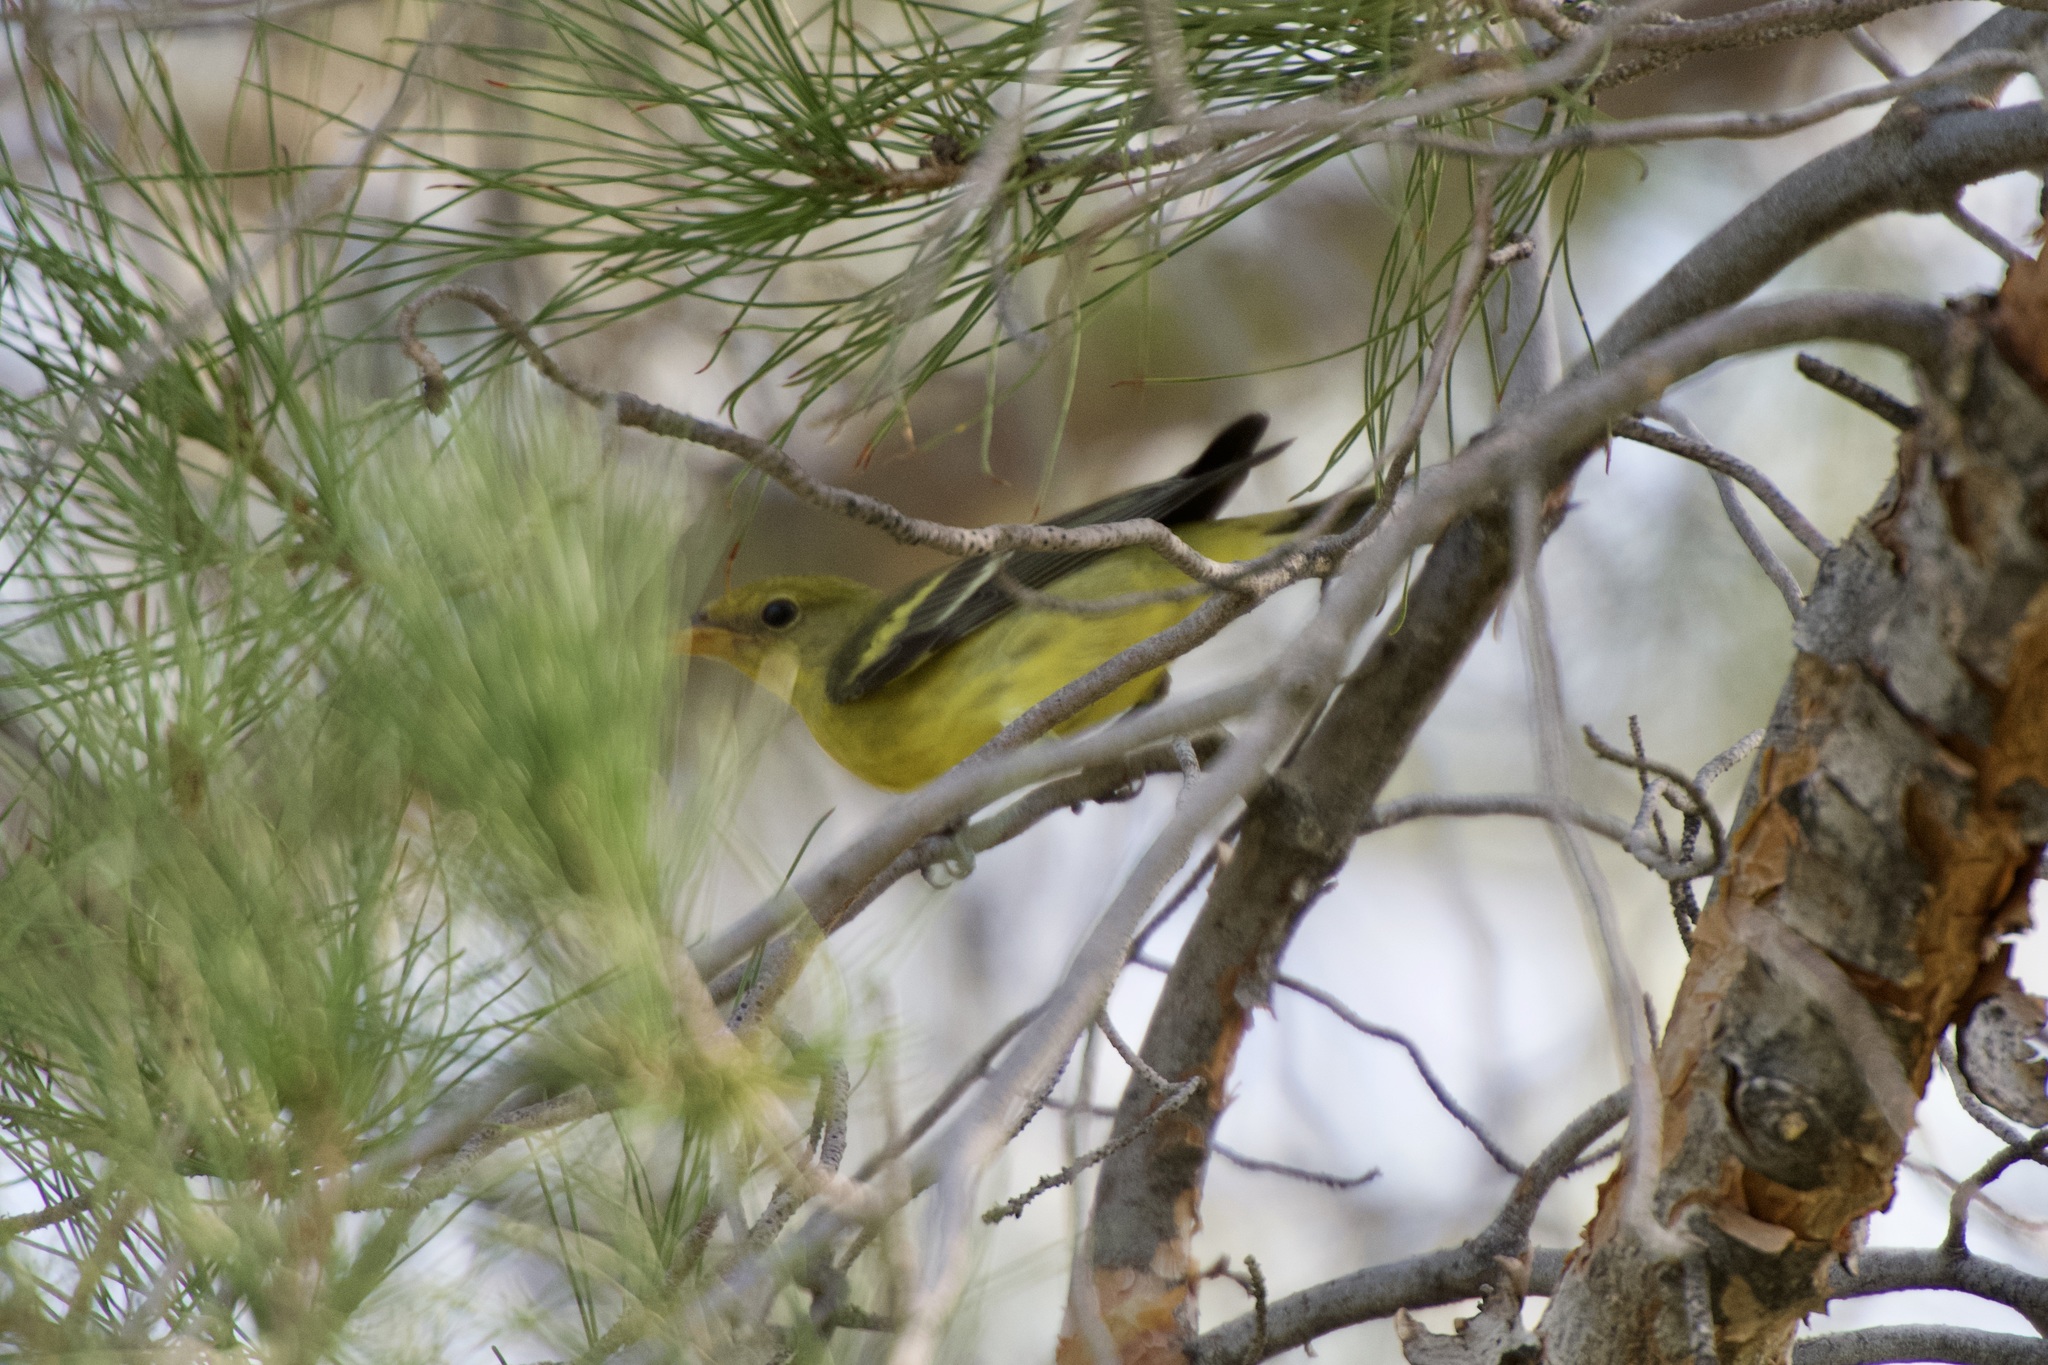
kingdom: Animalia
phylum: Chordata
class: Aves
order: Passeriformes
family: Cardinalidae
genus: Piranga
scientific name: Piranga ludoviciana
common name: Western tanager
